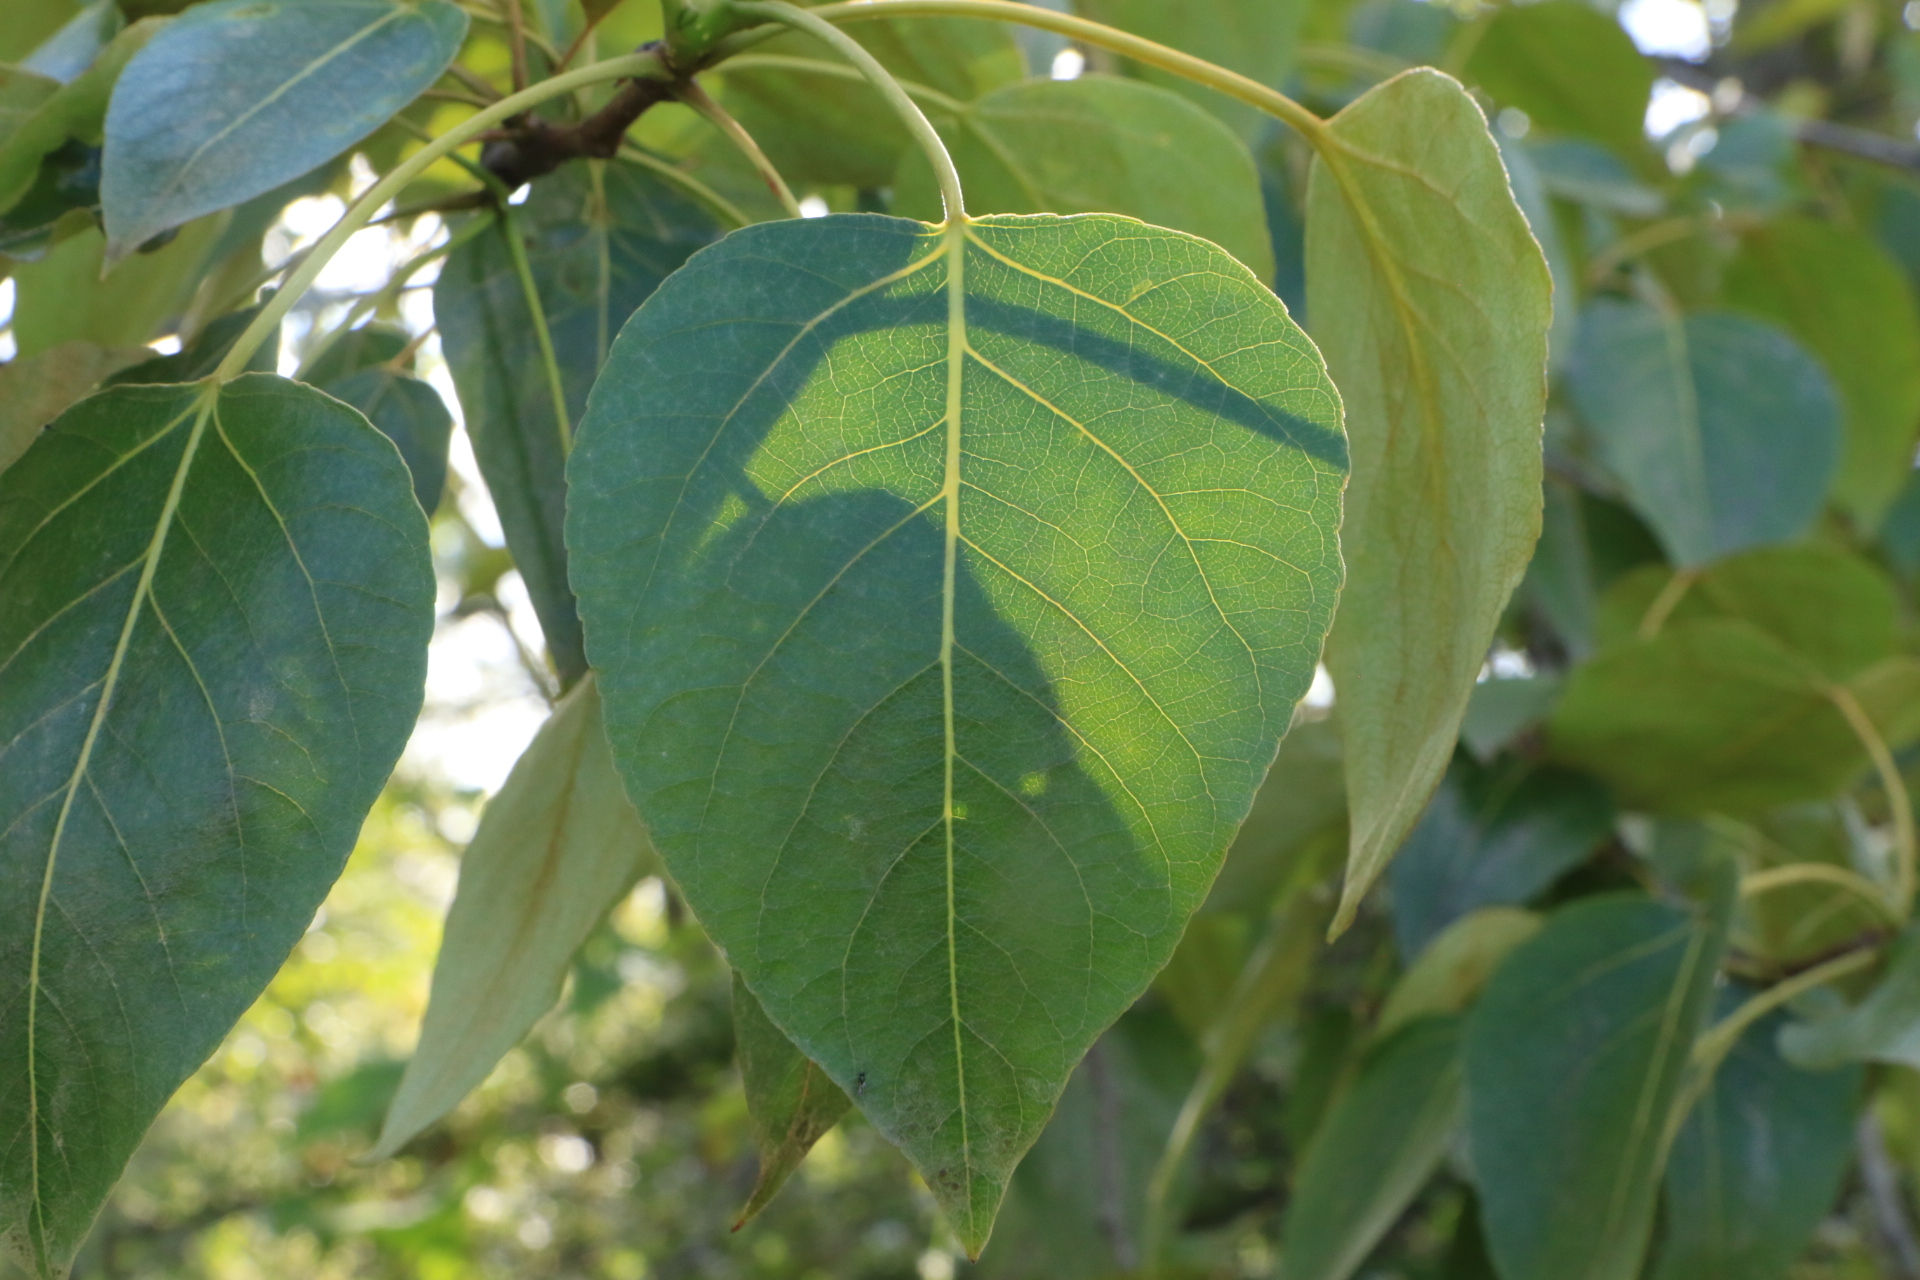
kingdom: Plantae
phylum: Tracheophyta
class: Magnoliopsida
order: Malpighiales
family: Salicaceae
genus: Populus
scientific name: Populus trichocarpa
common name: Black cottonwood
